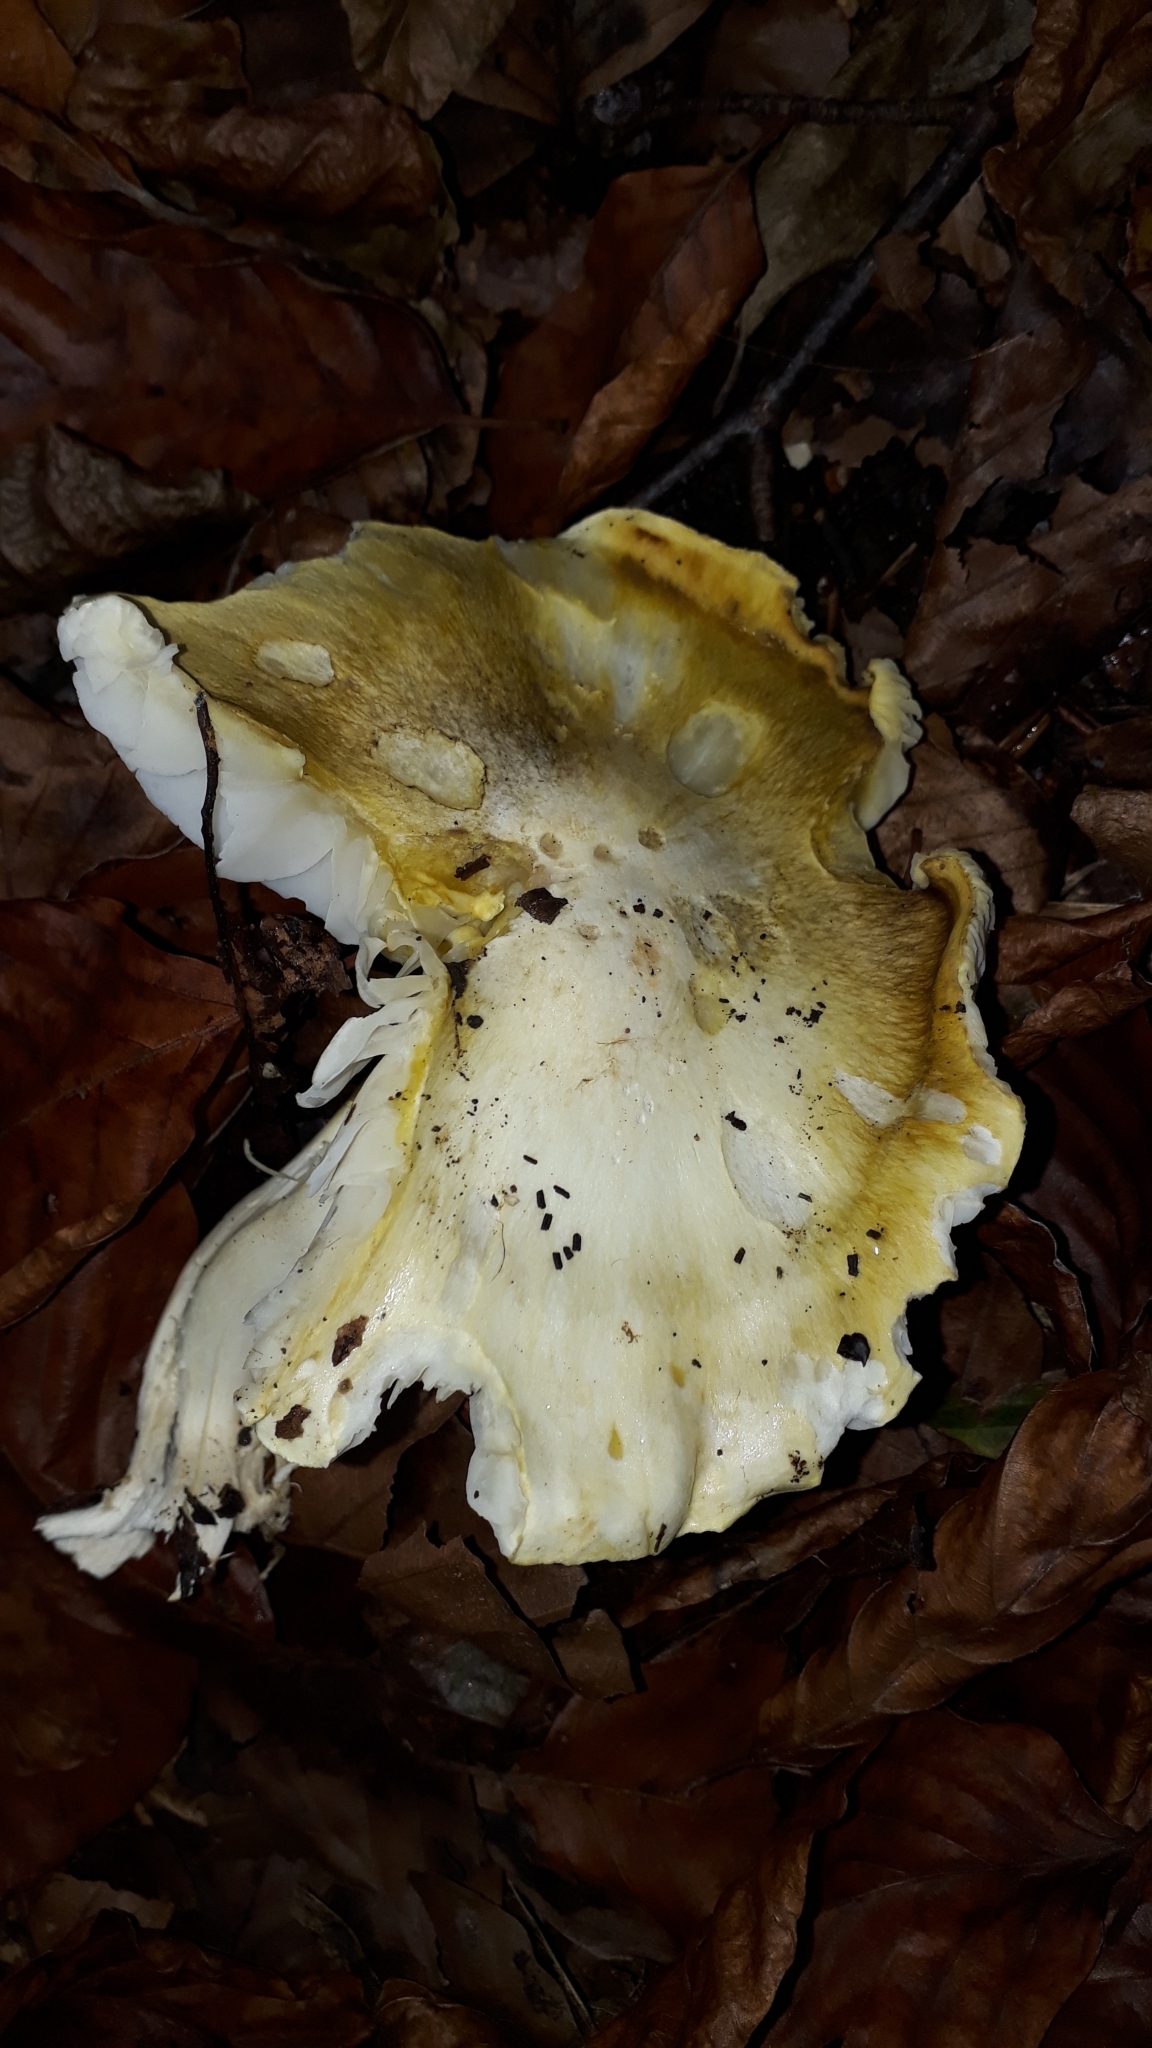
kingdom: Fungi
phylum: Basidiomycota
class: Agaricomycetes
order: Agaricales
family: Tricholomataceae
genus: Tricholoma
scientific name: Tricholoma sejunctum
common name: Deceiving knight
